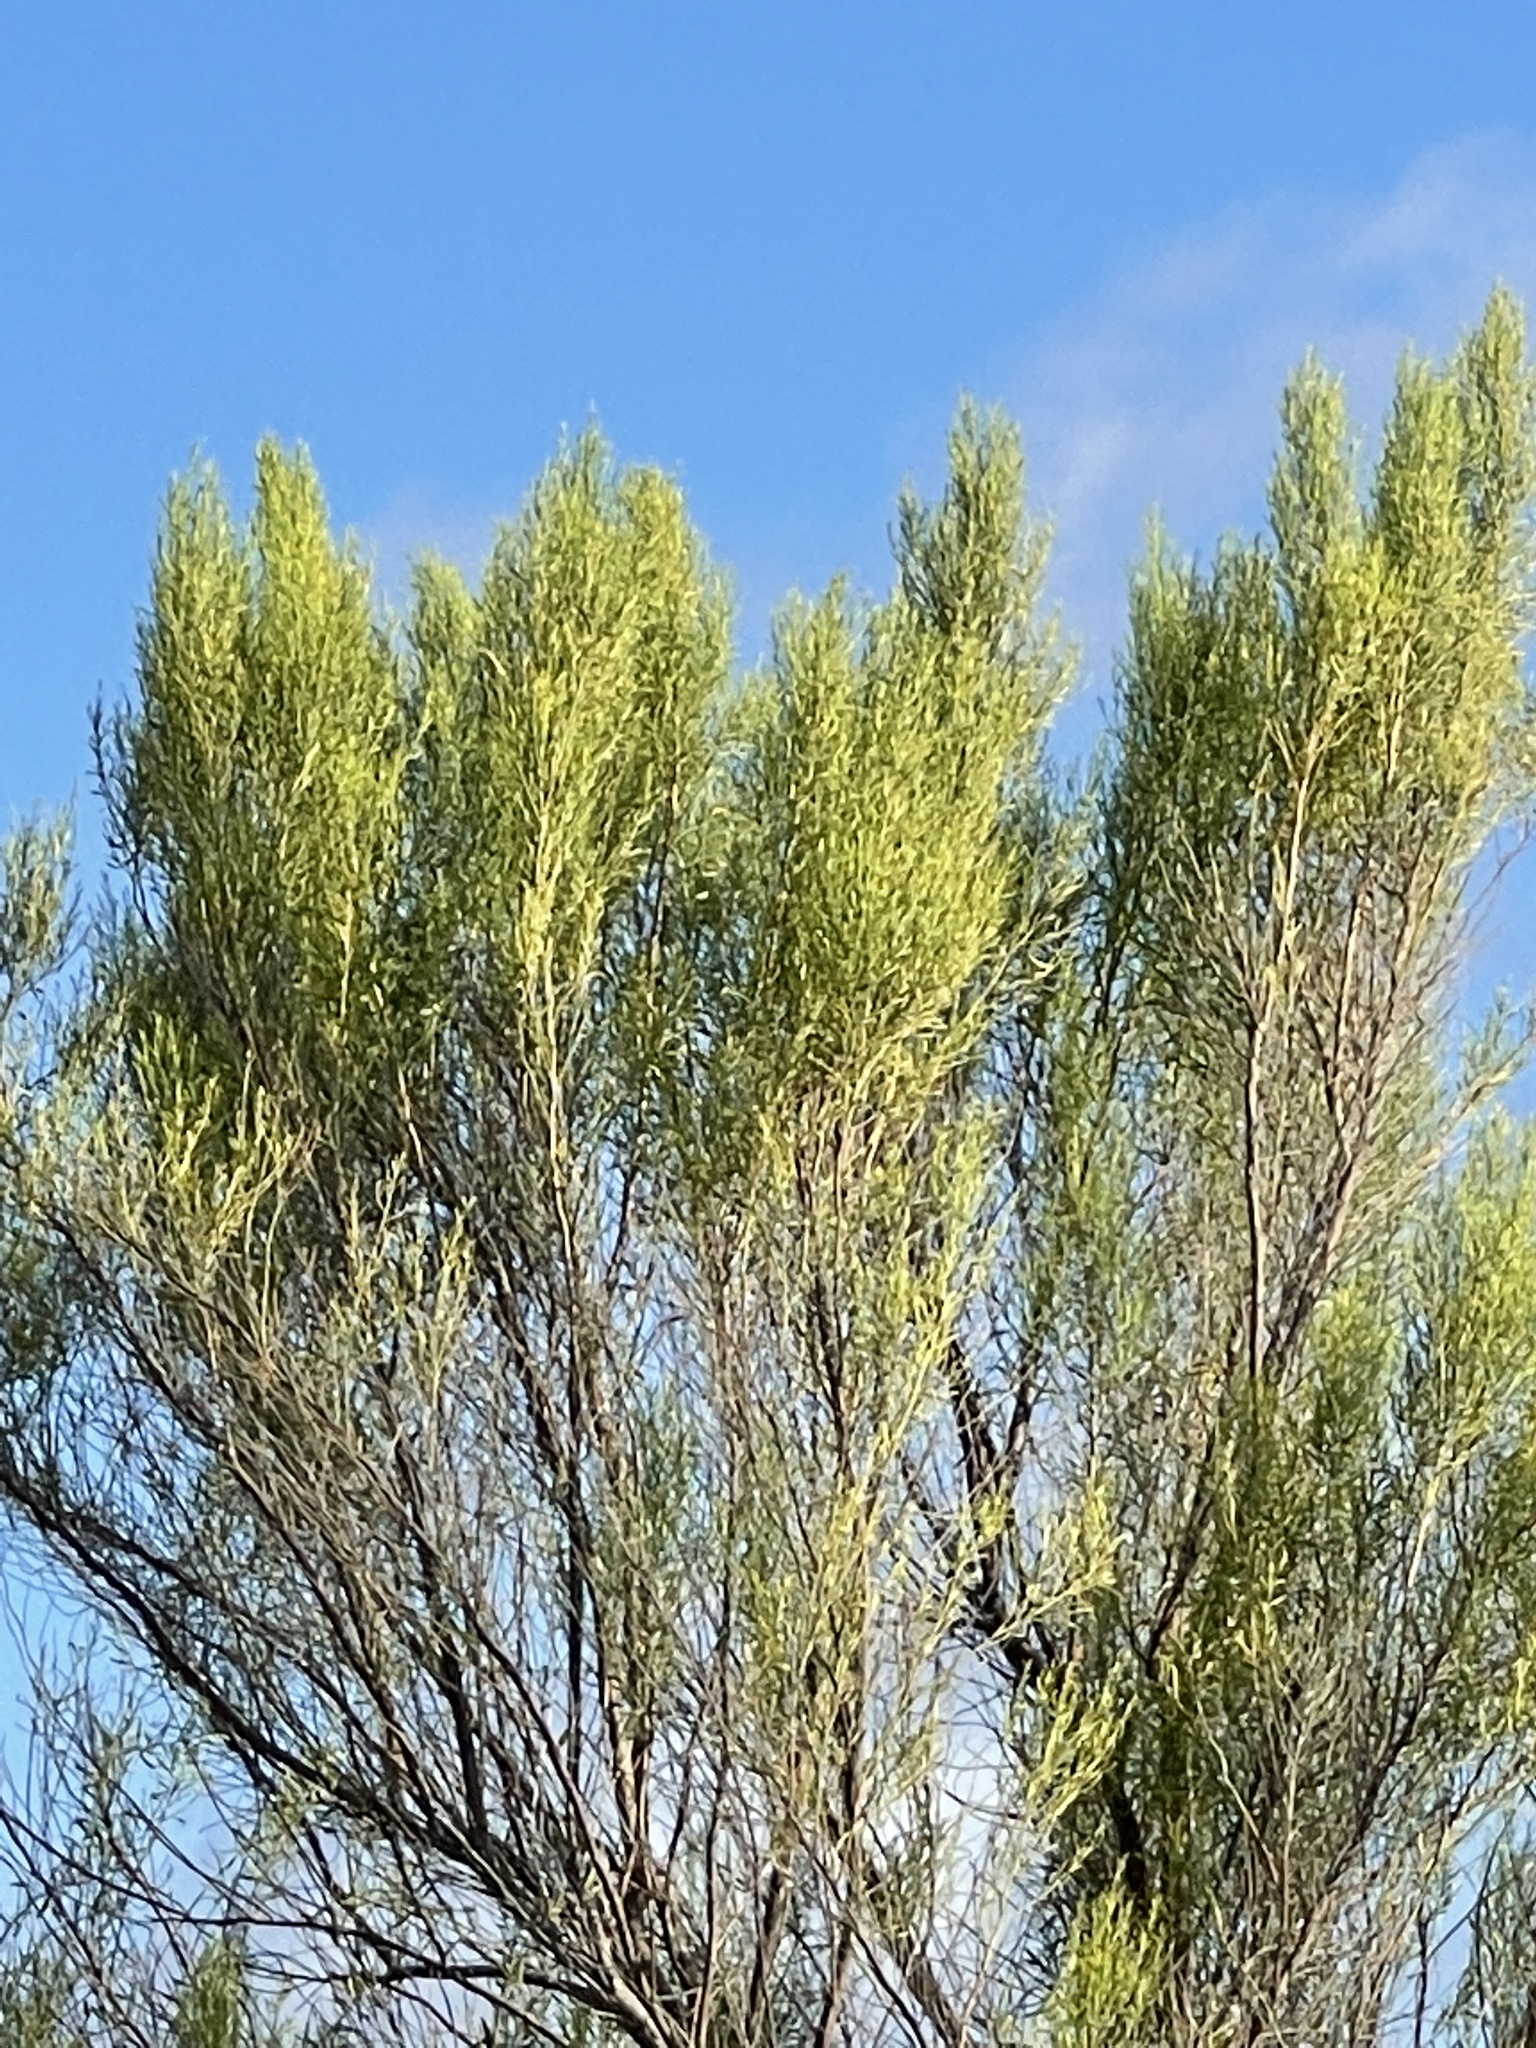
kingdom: Plantae
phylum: Tracheophyta
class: Magnoliopsida
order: Asterales
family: Asteraceae
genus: Baccharis
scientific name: Baccharis neglecta
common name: Roosevelt-weed
